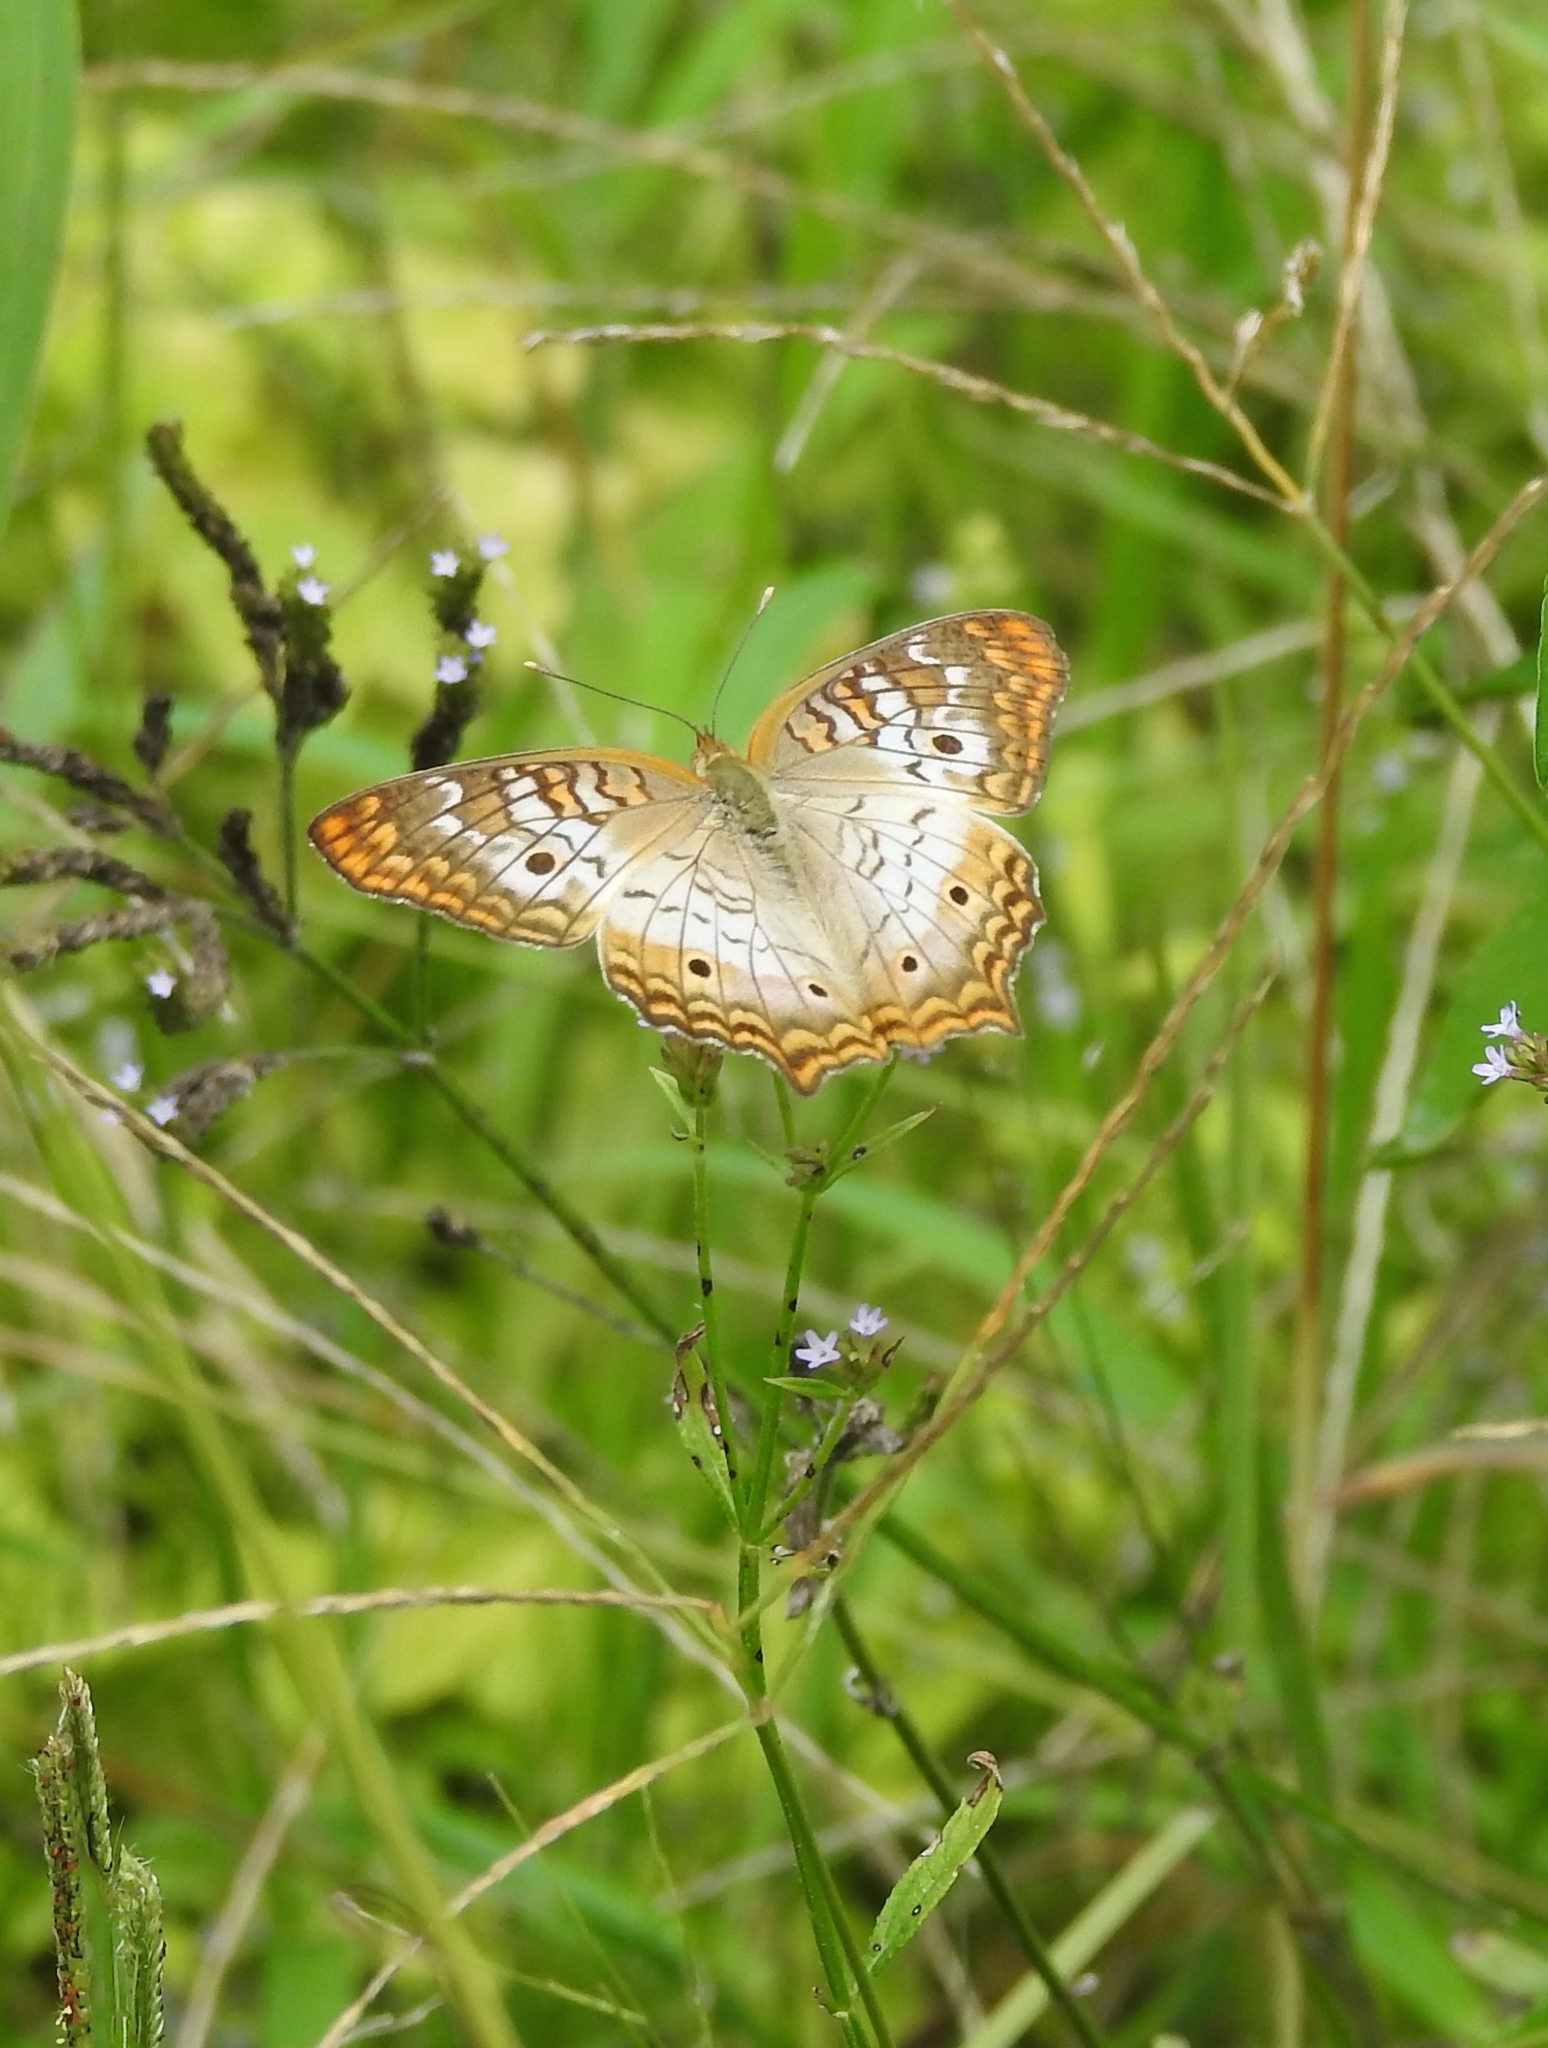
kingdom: Animalia
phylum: Arthropoda
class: Insecta
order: Lepidoptera
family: Nymphalidae
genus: Anartia
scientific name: Anartia jatrophae
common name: White peacock
